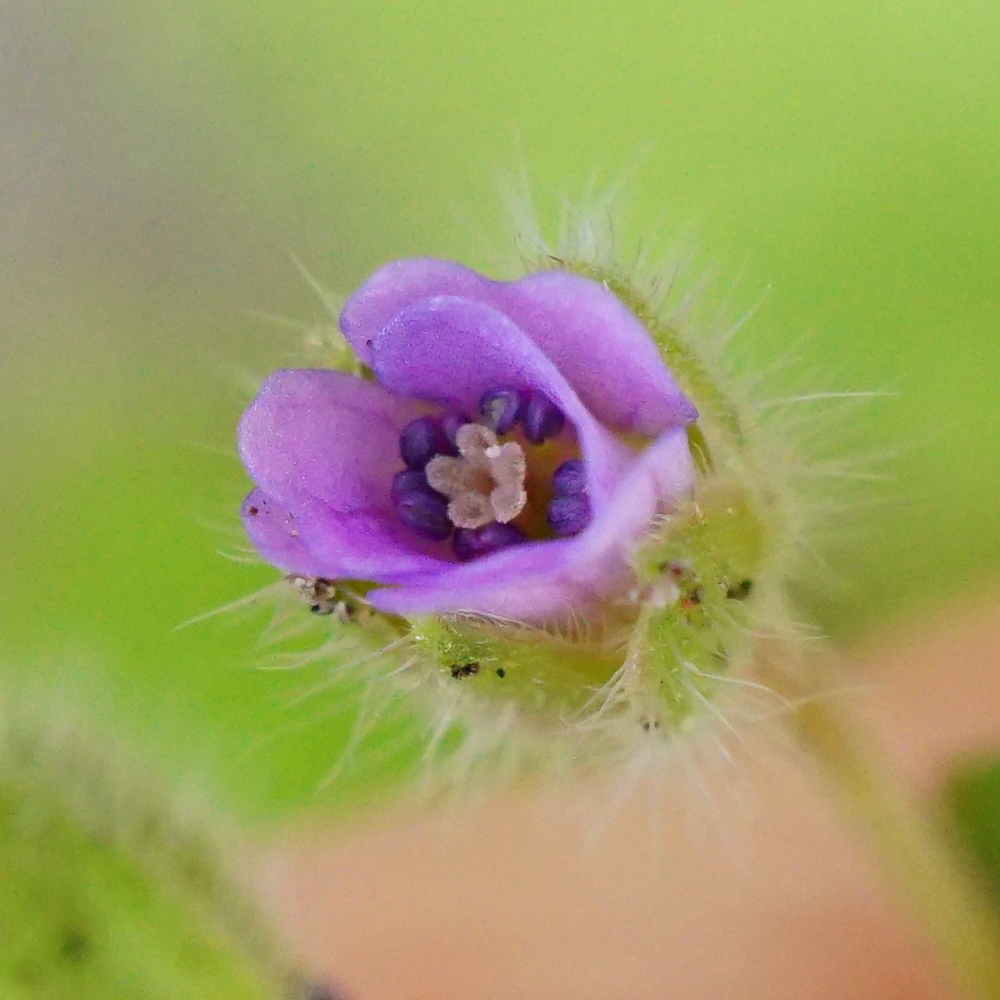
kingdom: Plantae
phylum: Tracheophyta
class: Magnoliopsida
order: Geraniales
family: Geraniaceae
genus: Geranium
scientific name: Geranium pusillum
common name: Small geranium
